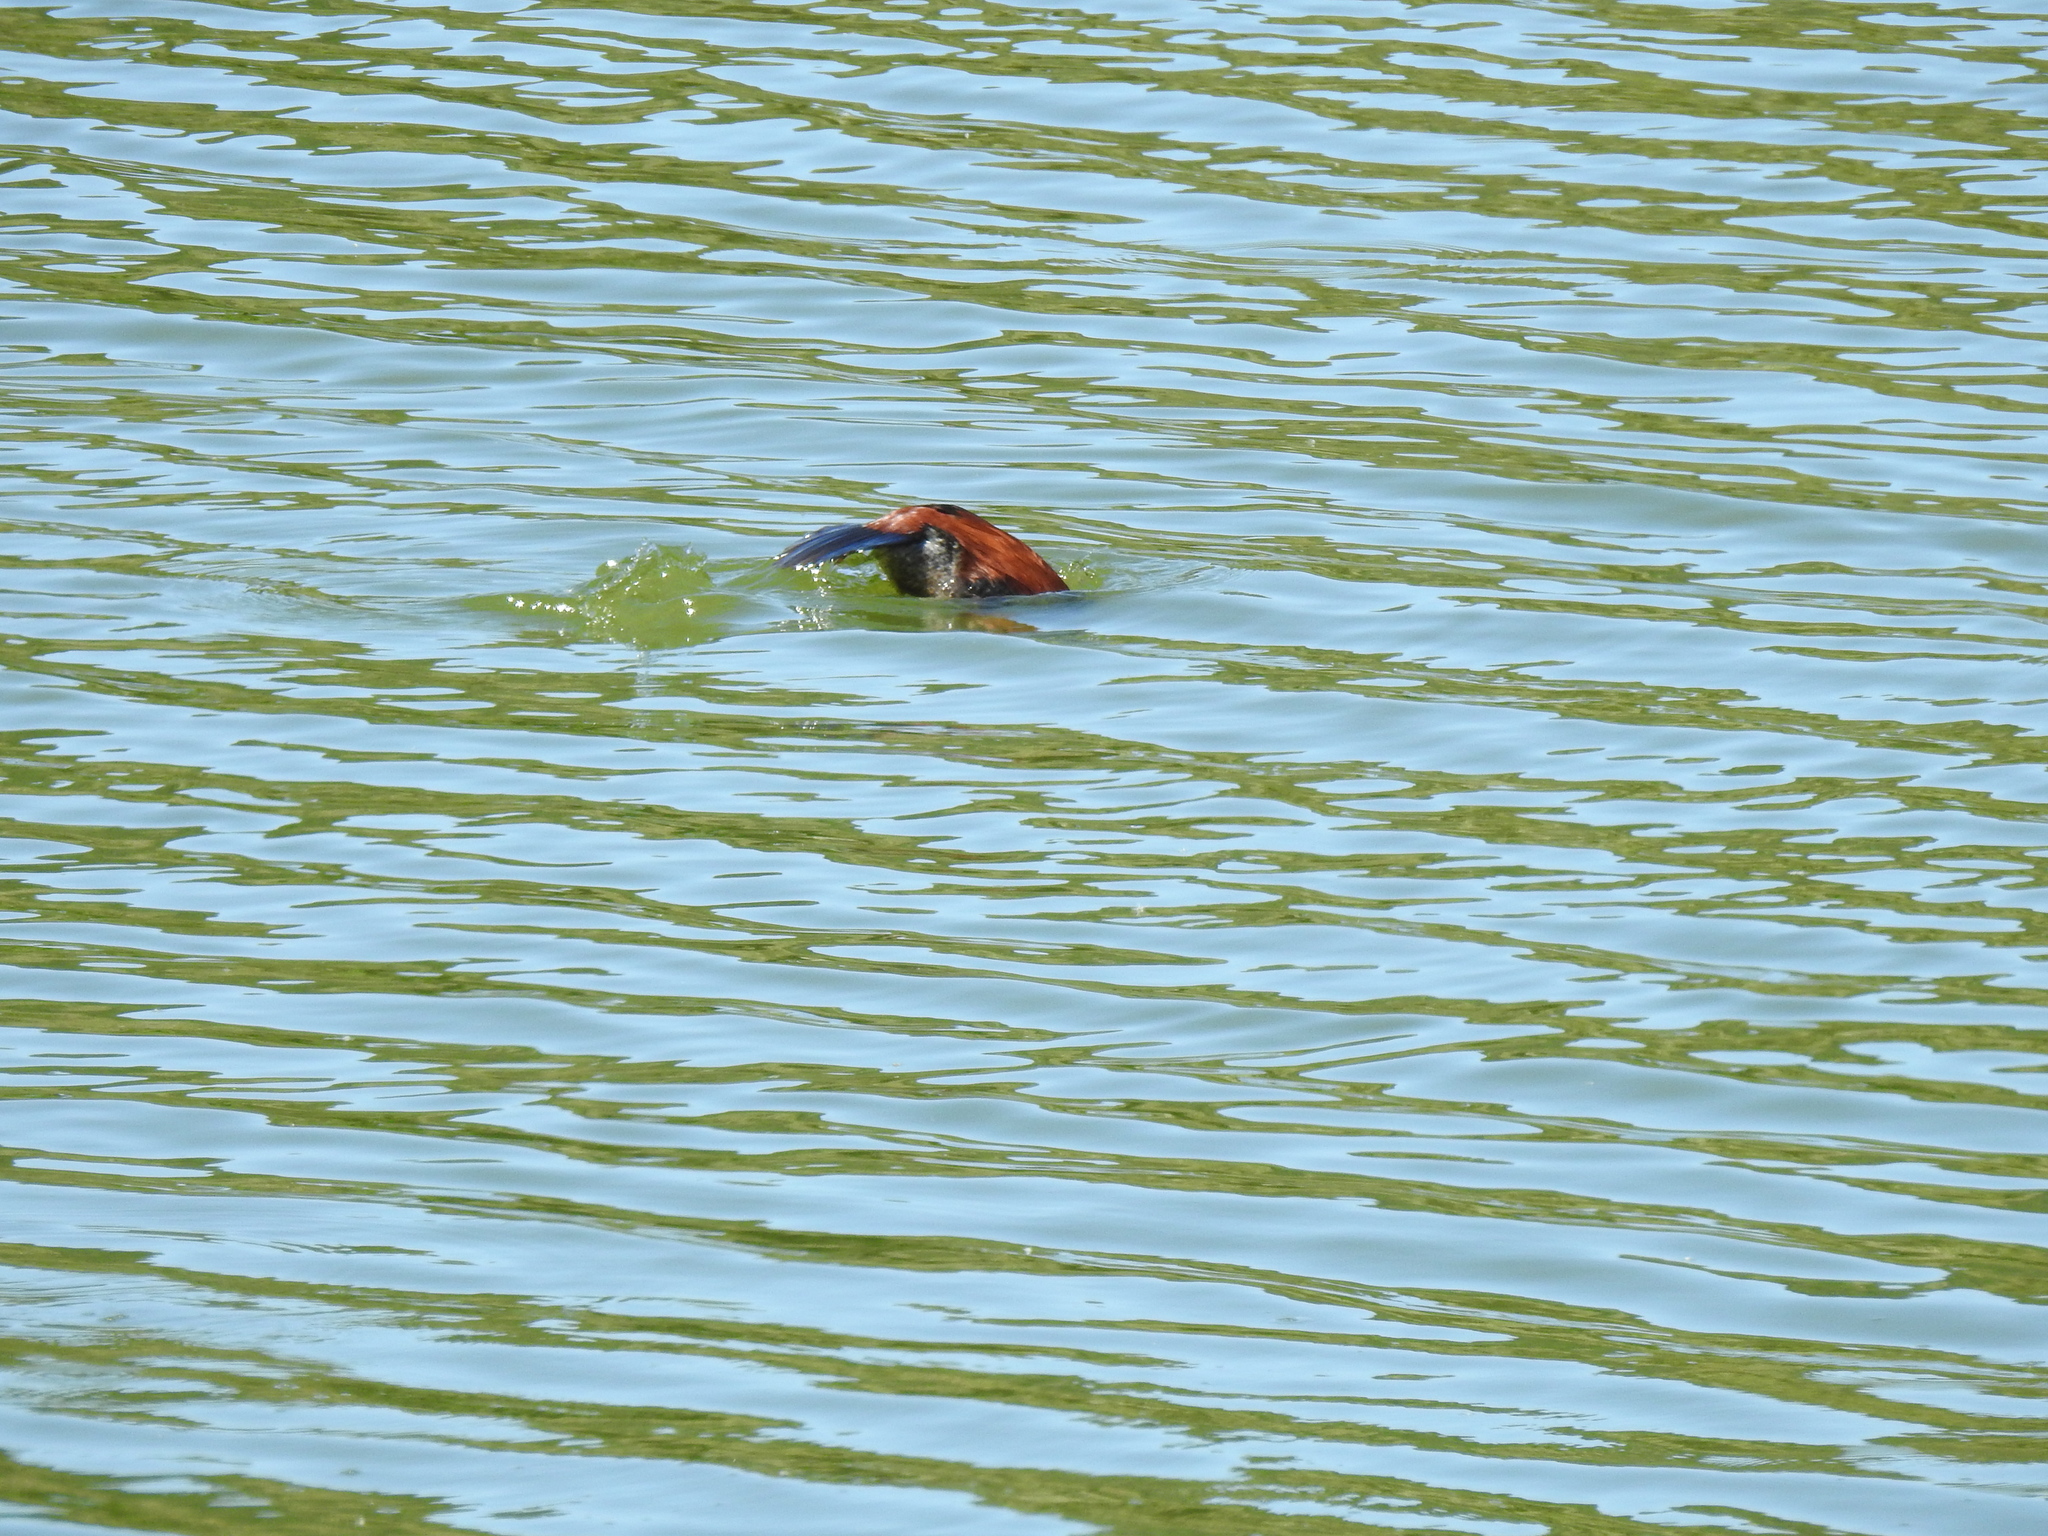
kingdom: Animalia
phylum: Chordata
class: Aves
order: Anseriformes
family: Anatidae
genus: Oxyura
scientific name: Oxyura jamaicensis
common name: Ruddy duck
